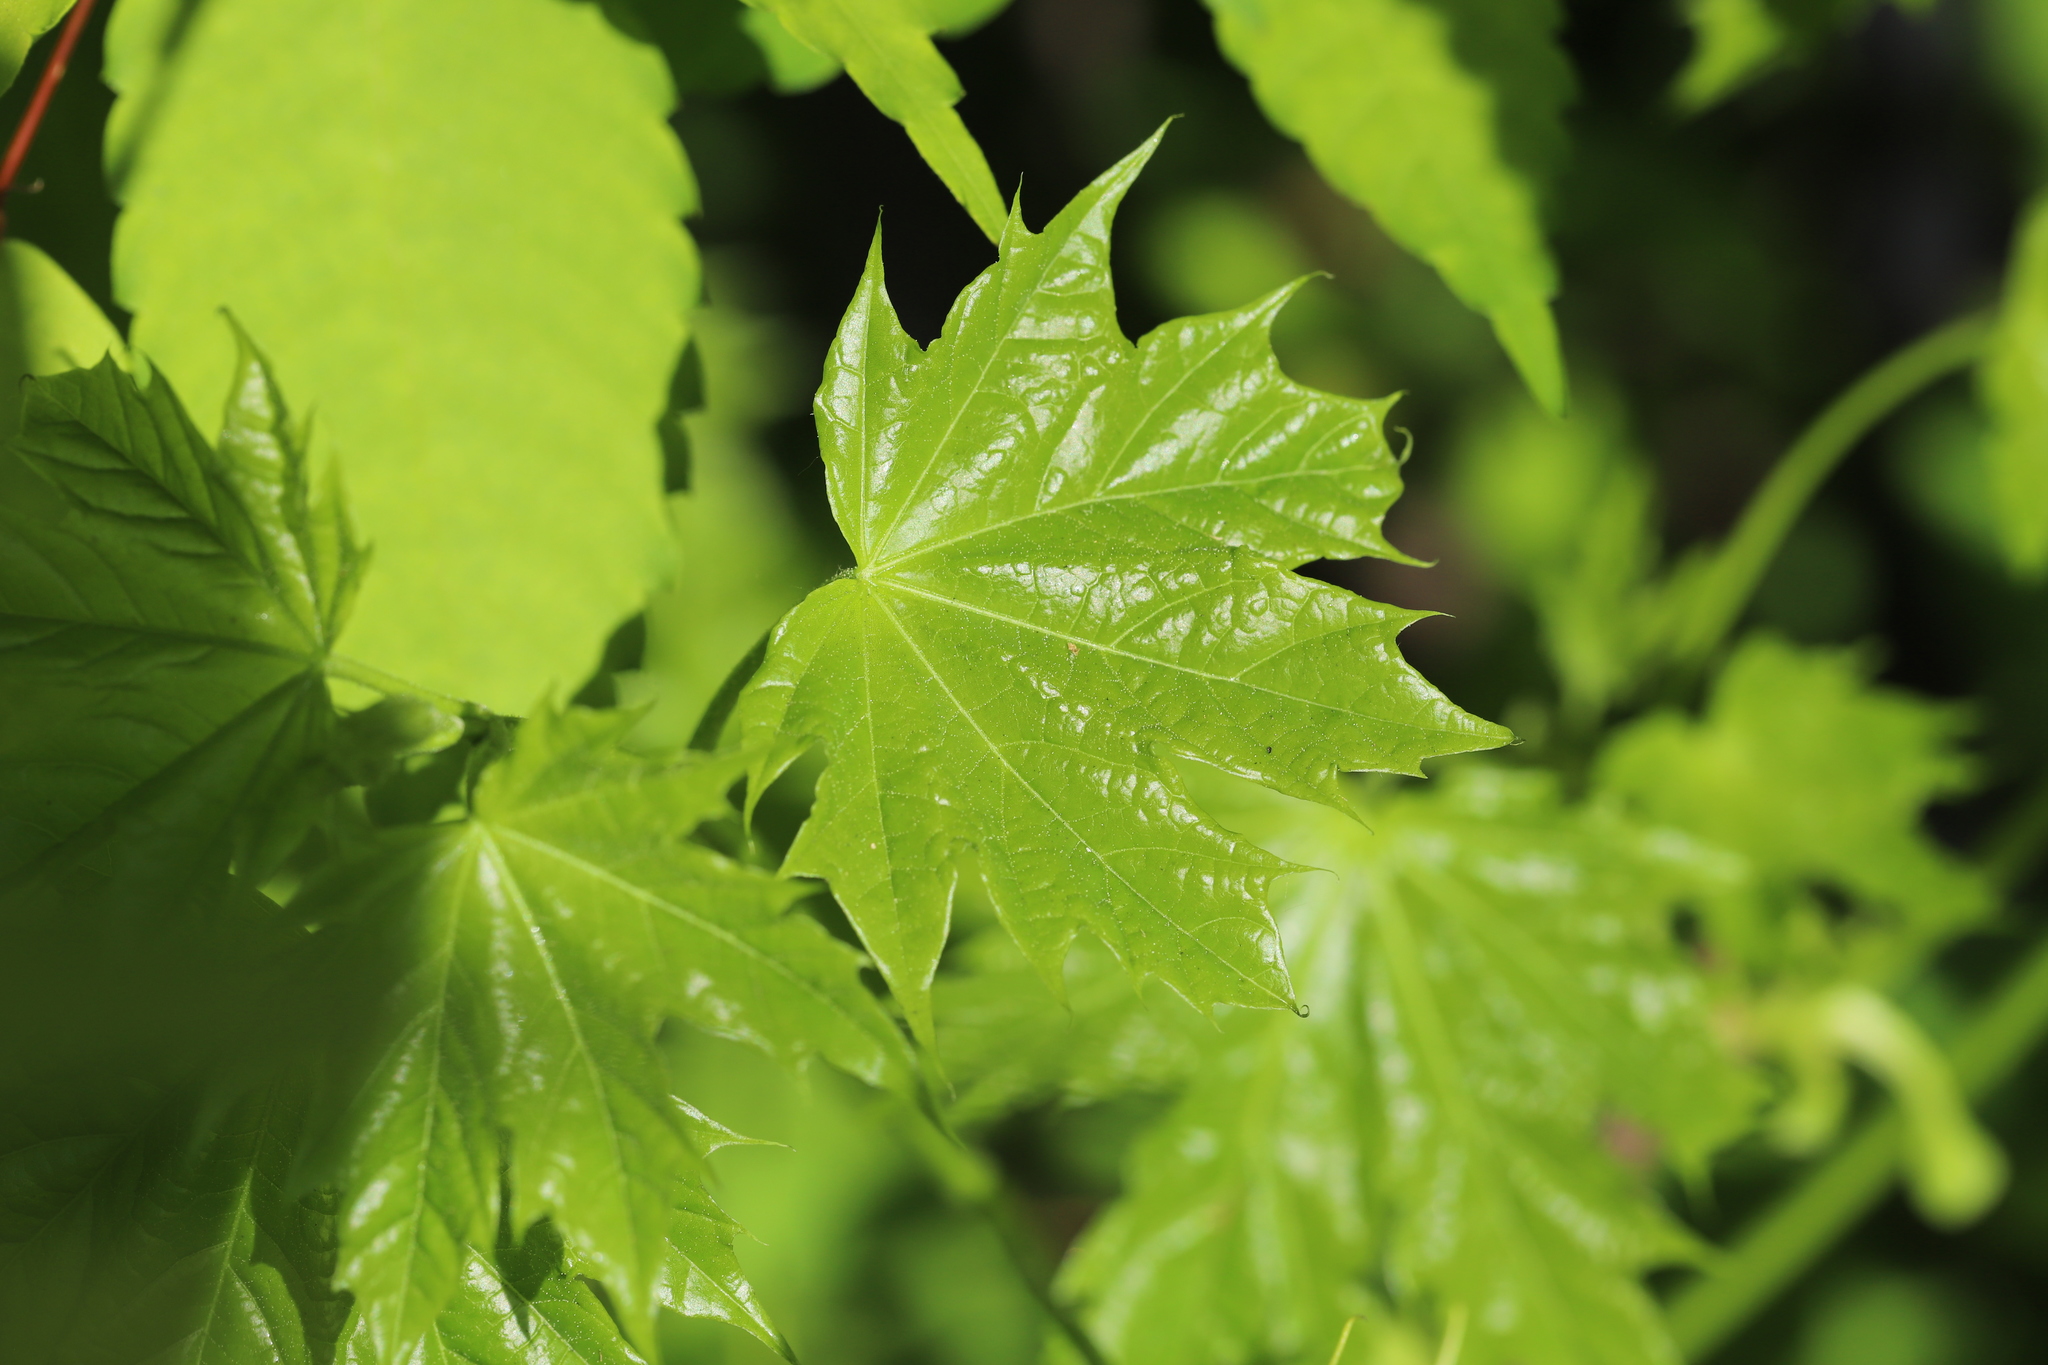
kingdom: Plantae
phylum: Tracheophyta
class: Magnoliopsida
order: Sapindales
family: Sapindaceae
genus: Acer
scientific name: Acer platanoides
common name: Norway maple
